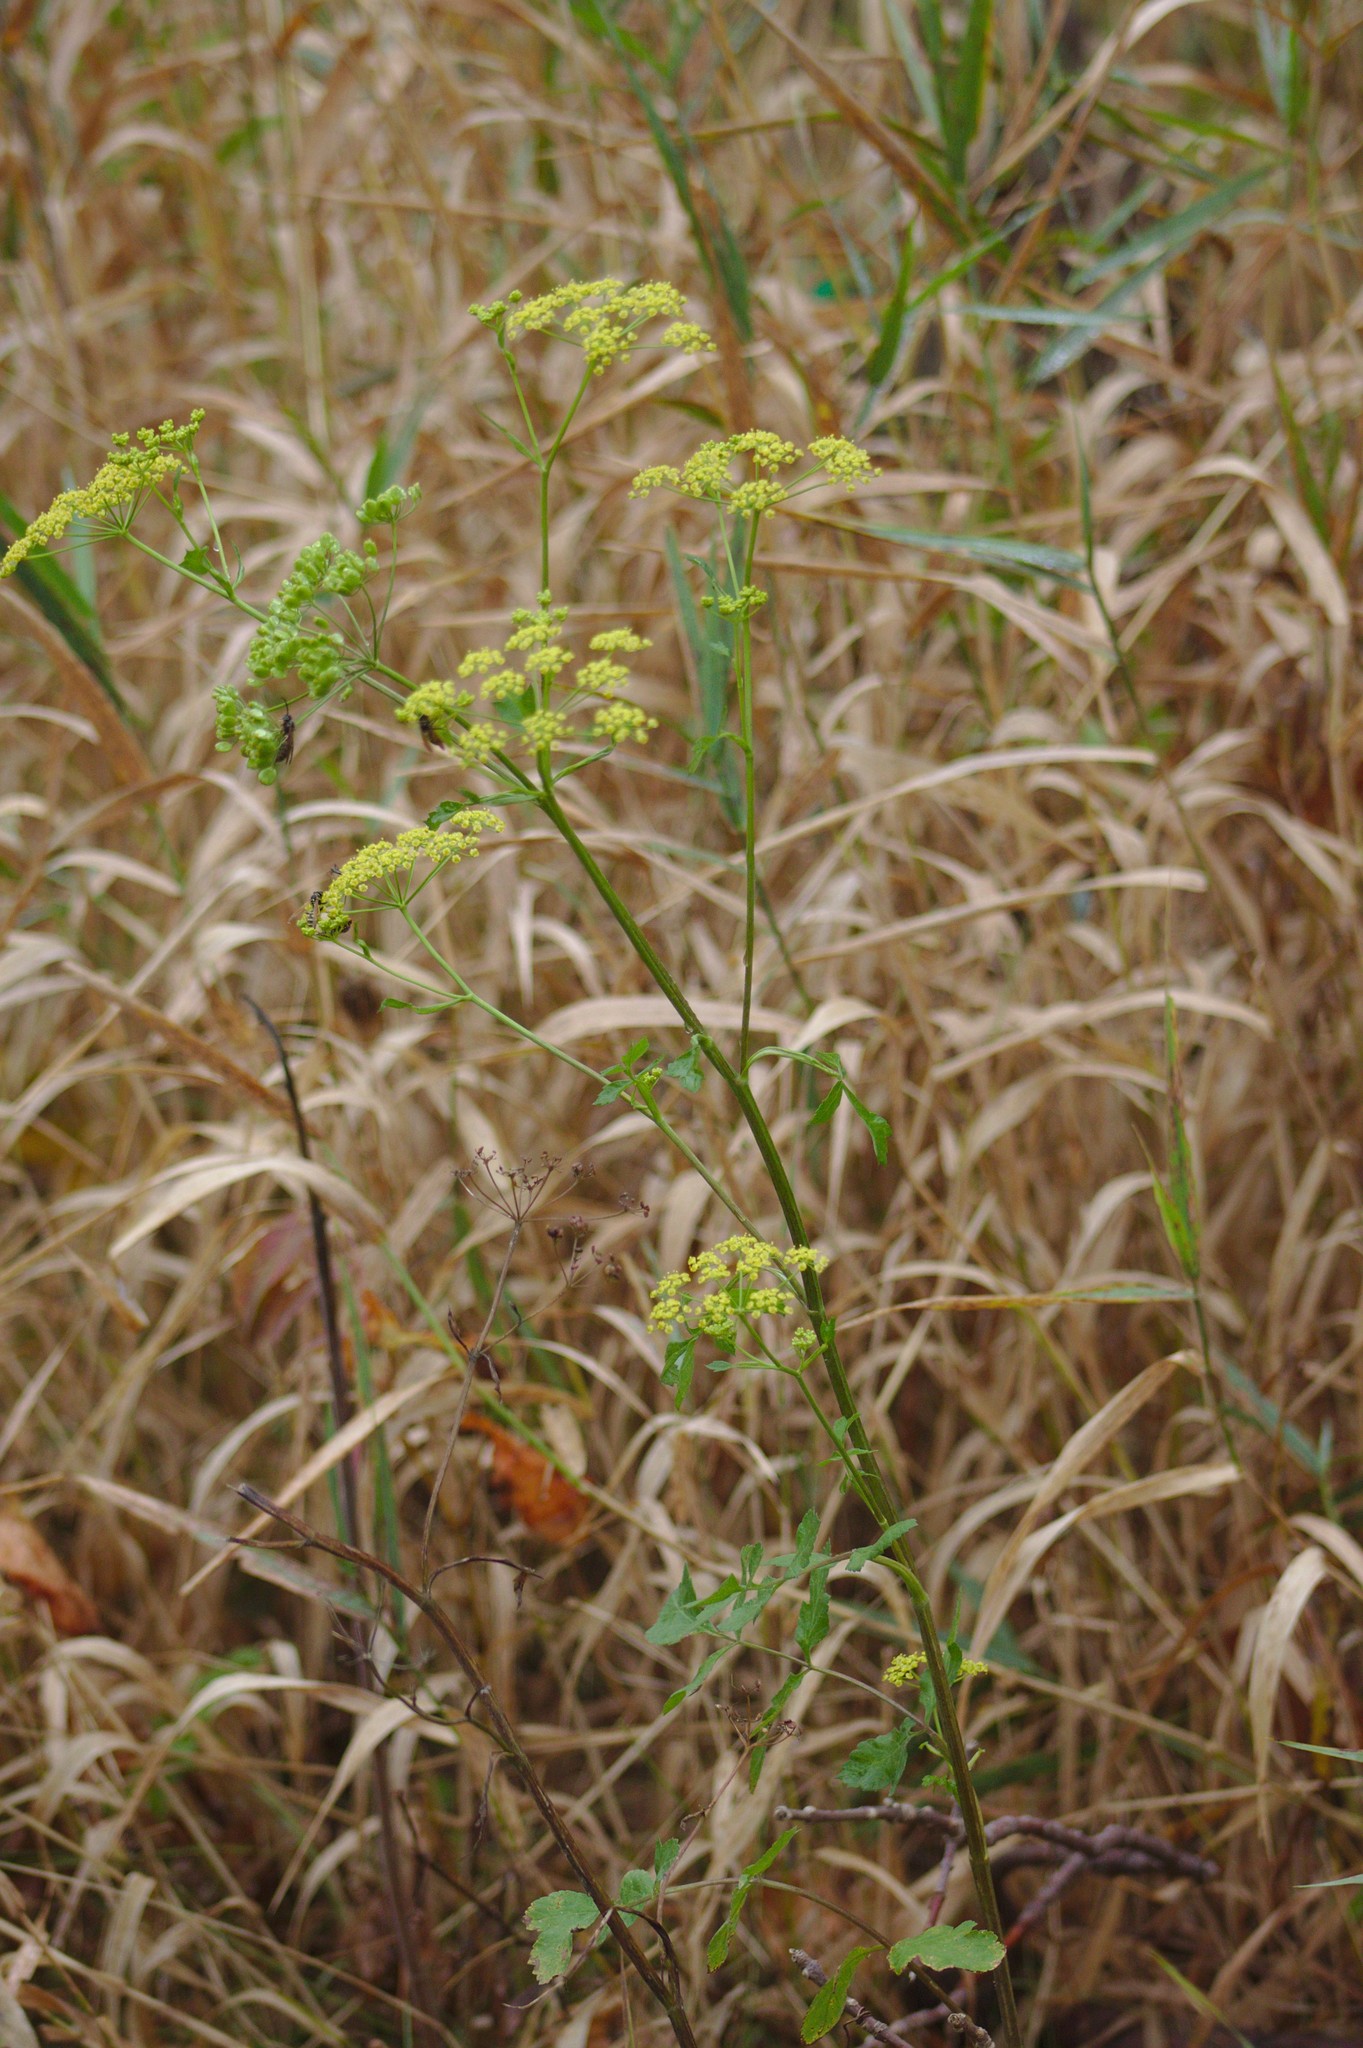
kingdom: Plantae
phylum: Tracheophyta
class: Magnoliopsida
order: Apiales
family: Apiaceae
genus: Pastinaca
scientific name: Pastinaca sativa
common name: Wild parsnip
